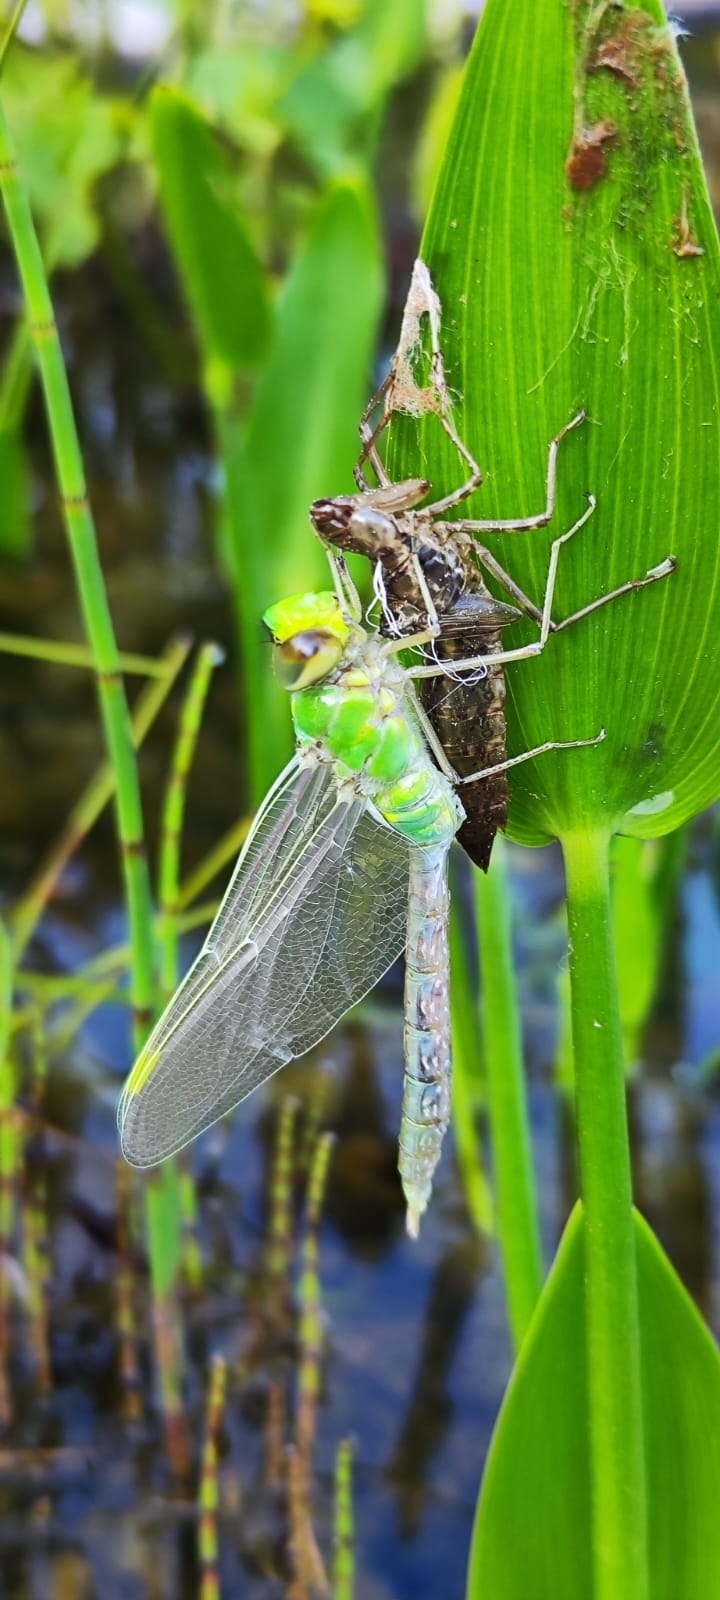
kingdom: Animalia
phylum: Arthropoda
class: Insecta
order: Odonata
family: Aeshnidae
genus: Anax
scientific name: Anax imperator
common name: Emperor dragonfly
